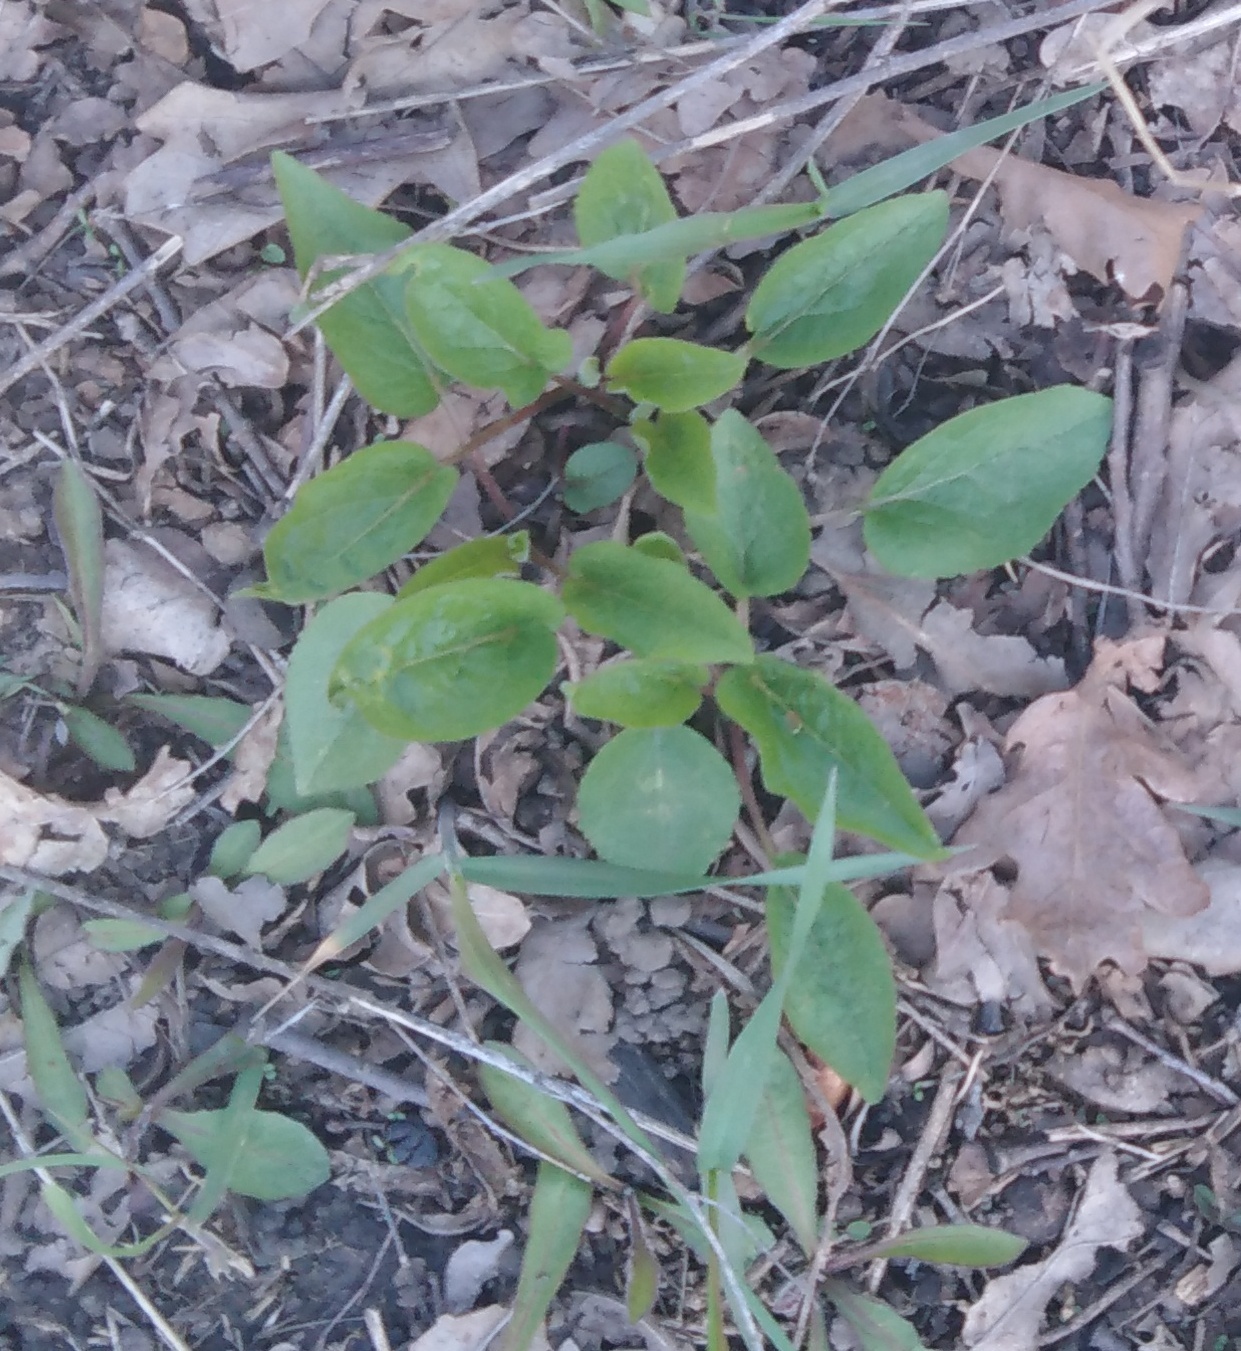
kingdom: Plantae
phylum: Tracheophyta
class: Magnoliopsida
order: Asterales
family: Campanulaceae
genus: Campanula
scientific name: Campanula rapunculoides
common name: Creeping bellflower
